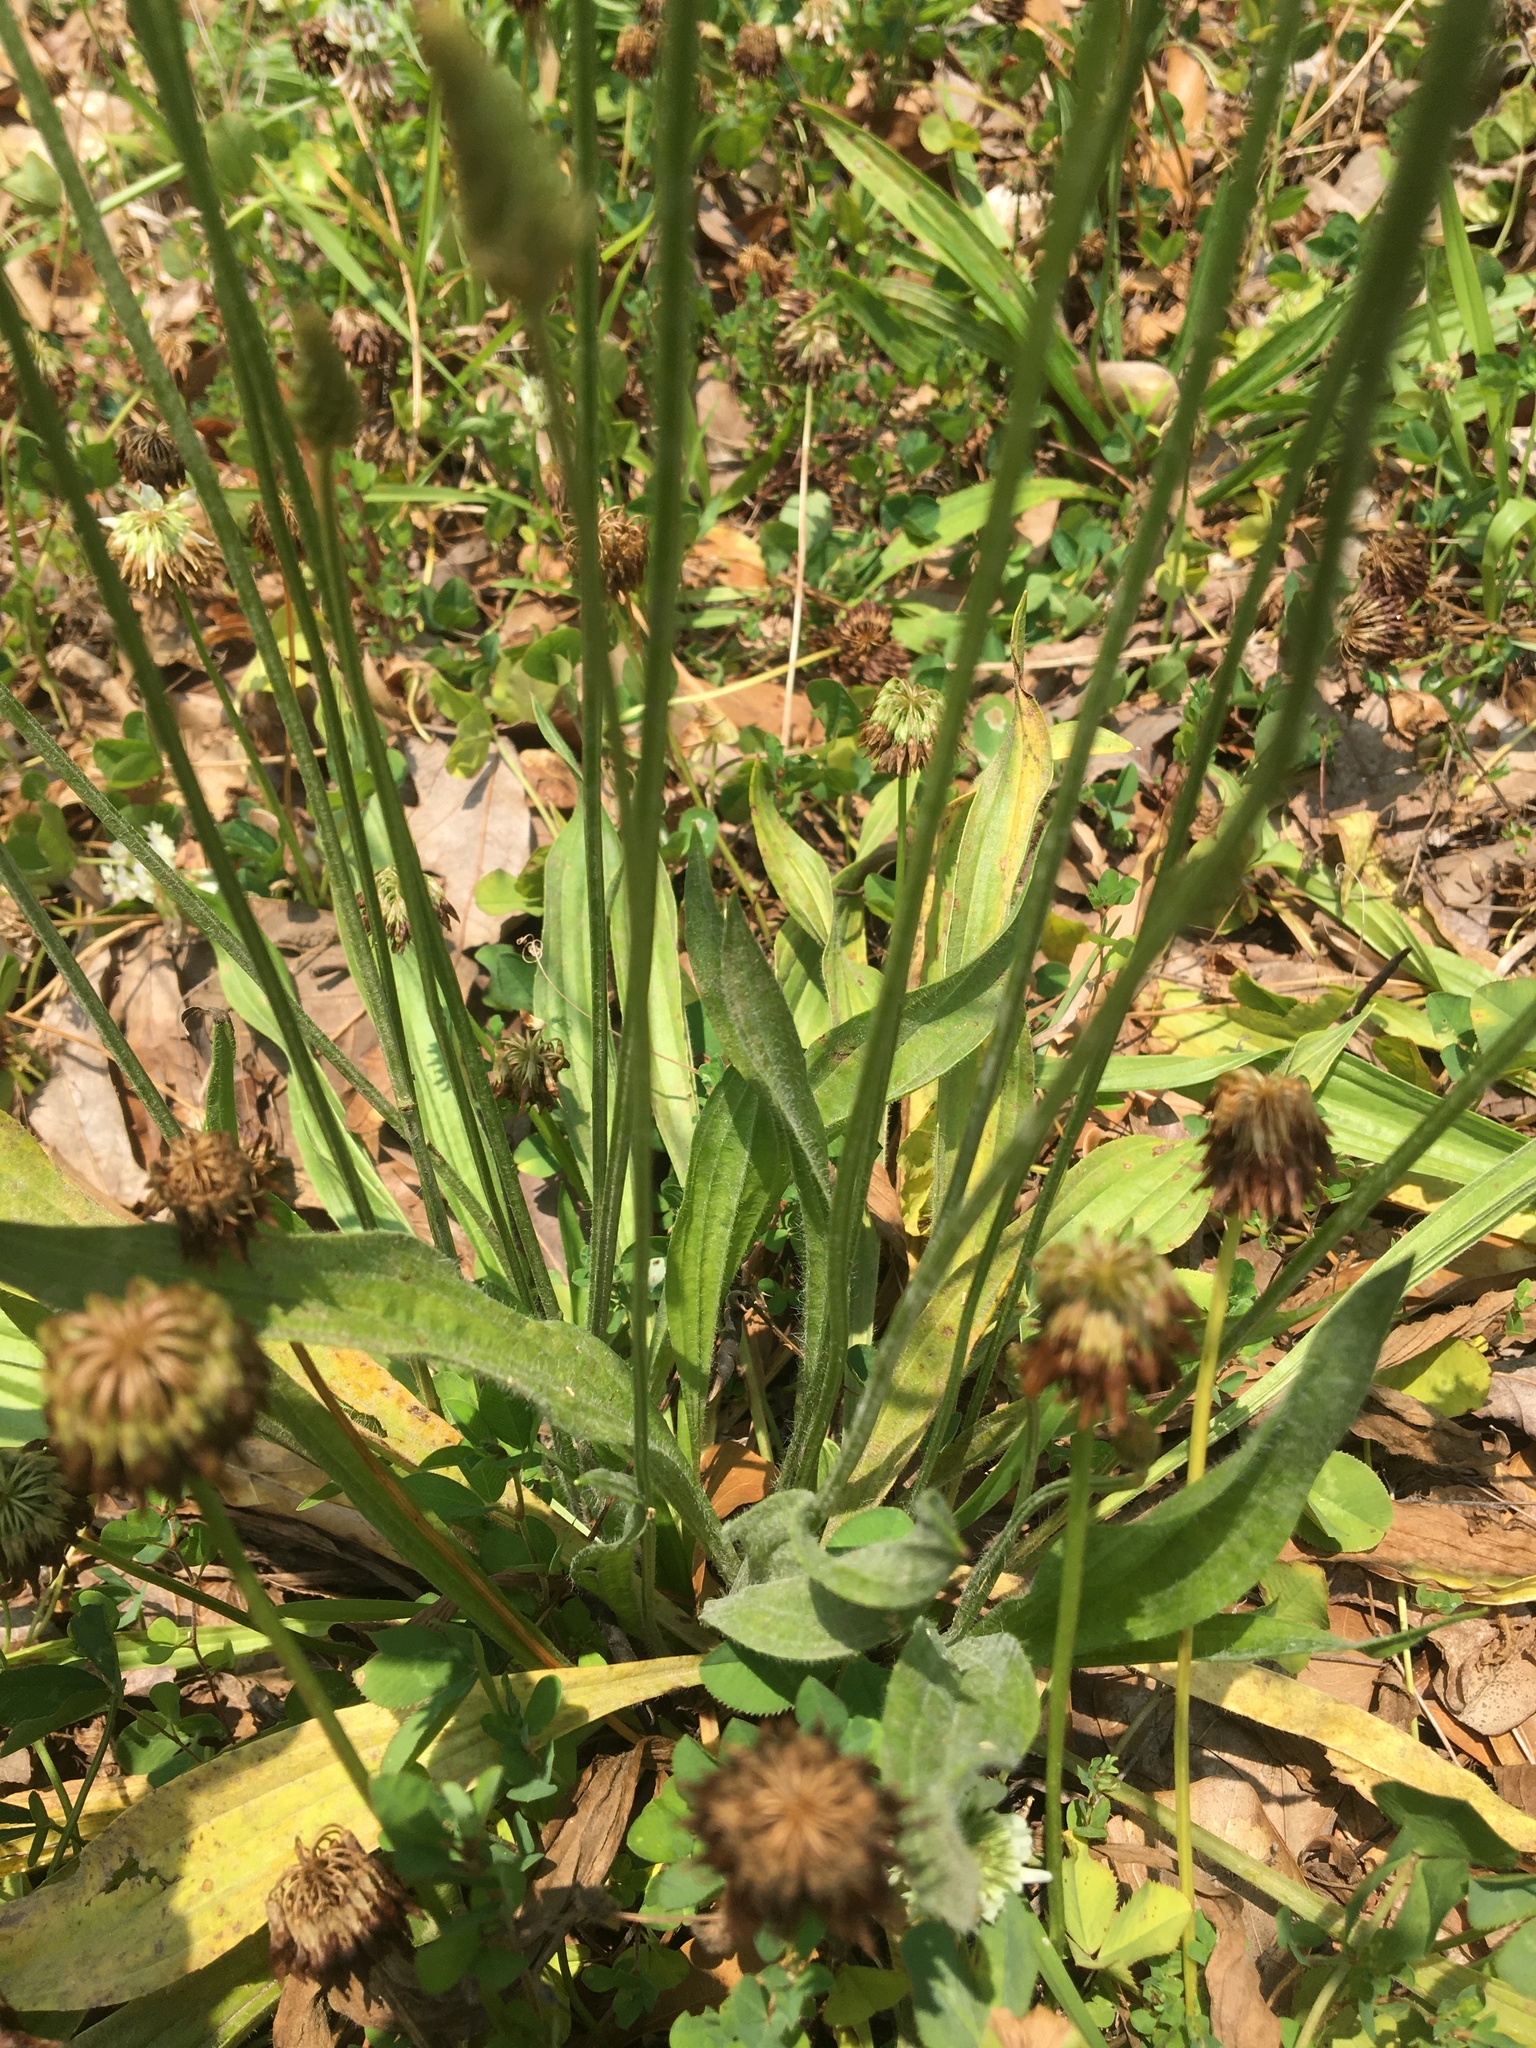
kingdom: Plantae
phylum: Tracheophyta
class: Magnoliopsida
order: Lamiales
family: Plantaginaceae
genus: Plantago
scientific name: Plantago lanceolata
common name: Ribwort plantain
